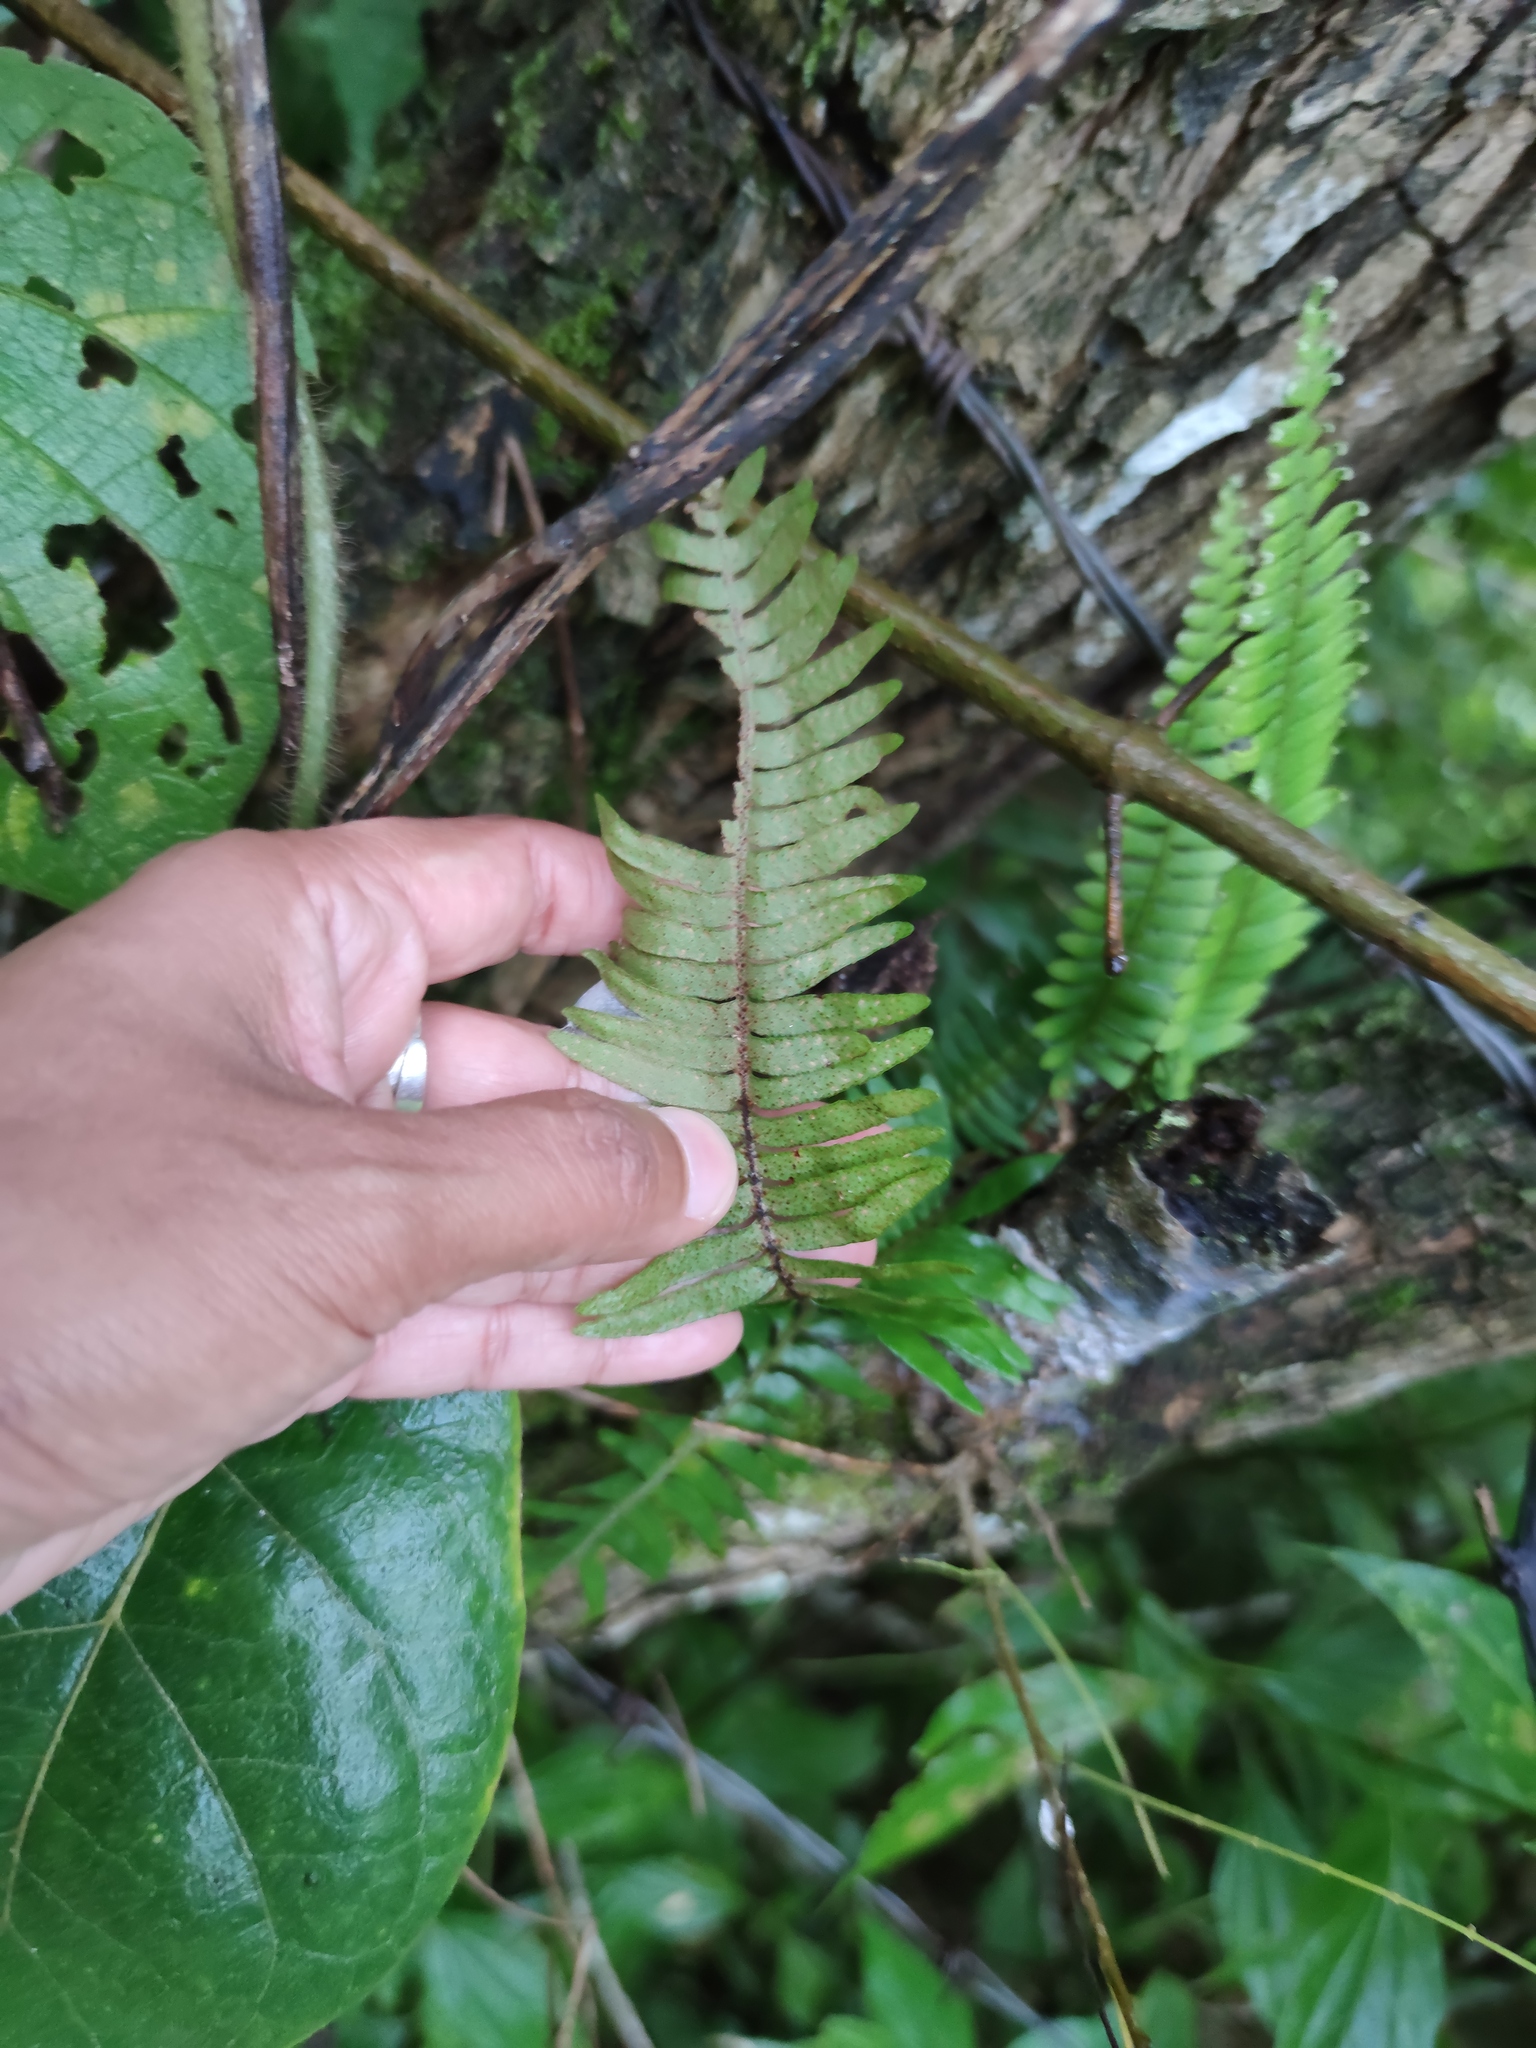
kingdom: Plantae
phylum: Tracheophyta
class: Polypodiopsida
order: Polypodiales
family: Polypodiaceae
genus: Pleopeltis
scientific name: Pleopeltis polypodioides
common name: Resurrection fern
